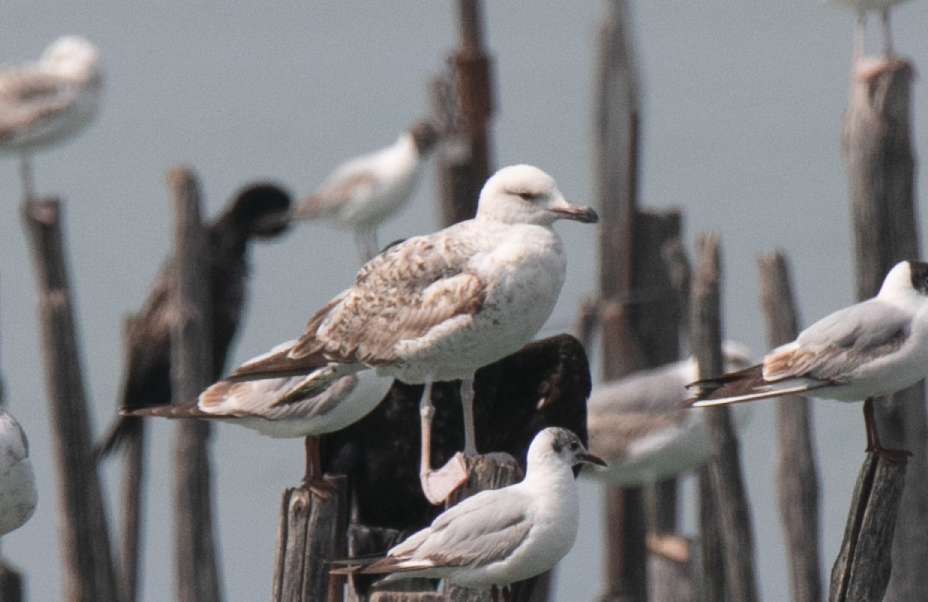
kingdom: Animalia
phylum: Chordata
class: Aves
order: Charadriiformes
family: Laridae
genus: Larus
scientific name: Larus michahellis
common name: Yellow-legged gull
